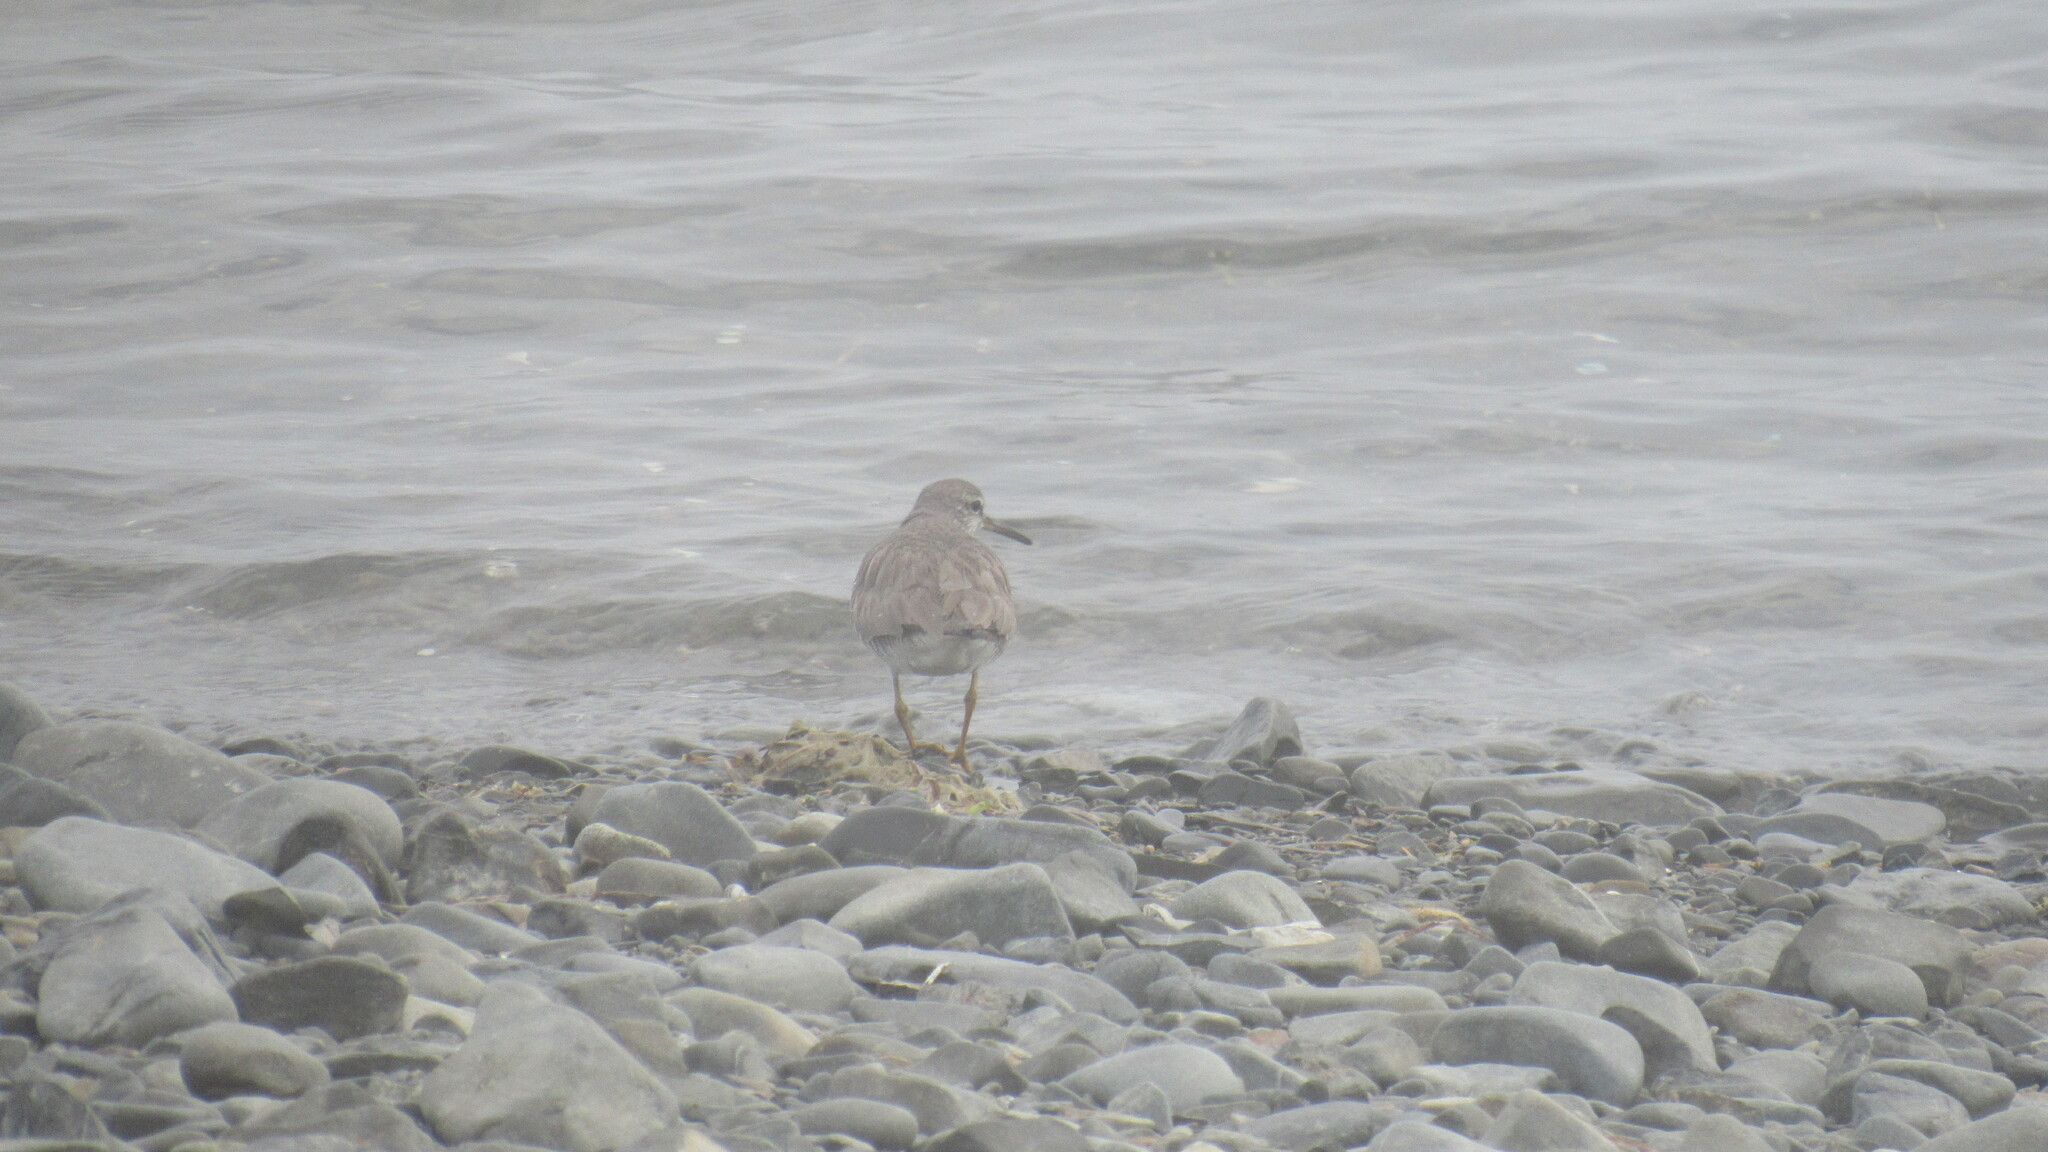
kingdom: Animalia
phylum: Chordata
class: Aves
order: Charadriiformes
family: Scolopacidae
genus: Tringa
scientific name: Tringa brevipes
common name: Grey-tailed tattler
